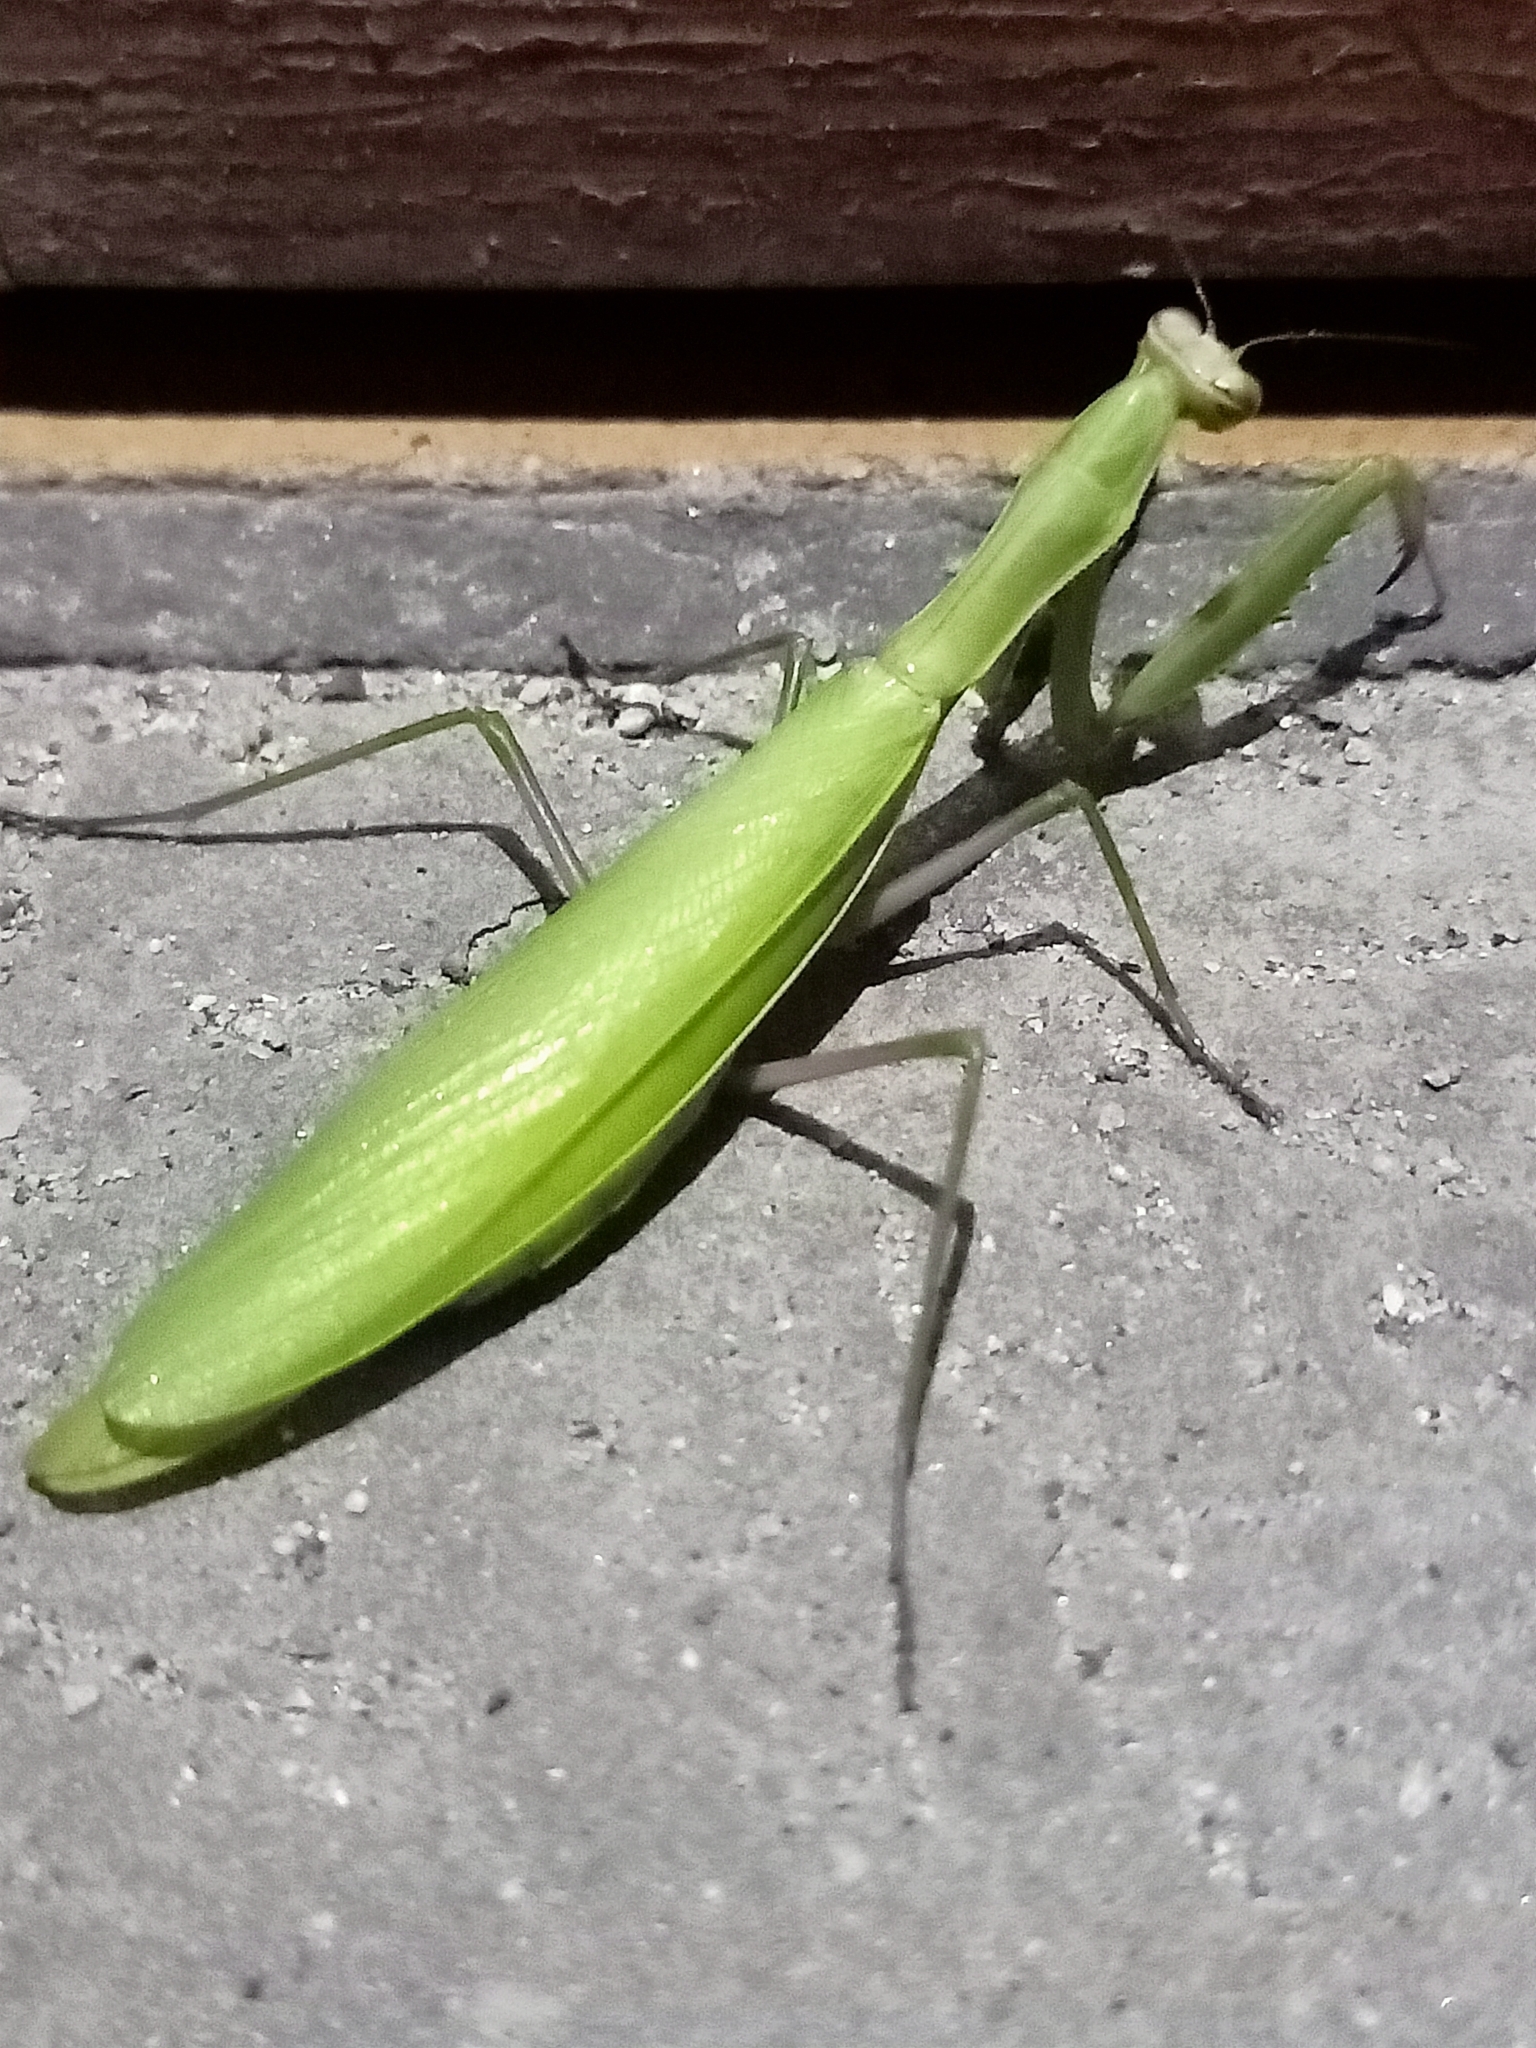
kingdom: Animalia
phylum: Arthropoda
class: Insecta
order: Mantodea
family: Mantidae
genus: Mantis
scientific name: Mantis religiosa
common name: Praying mantis
